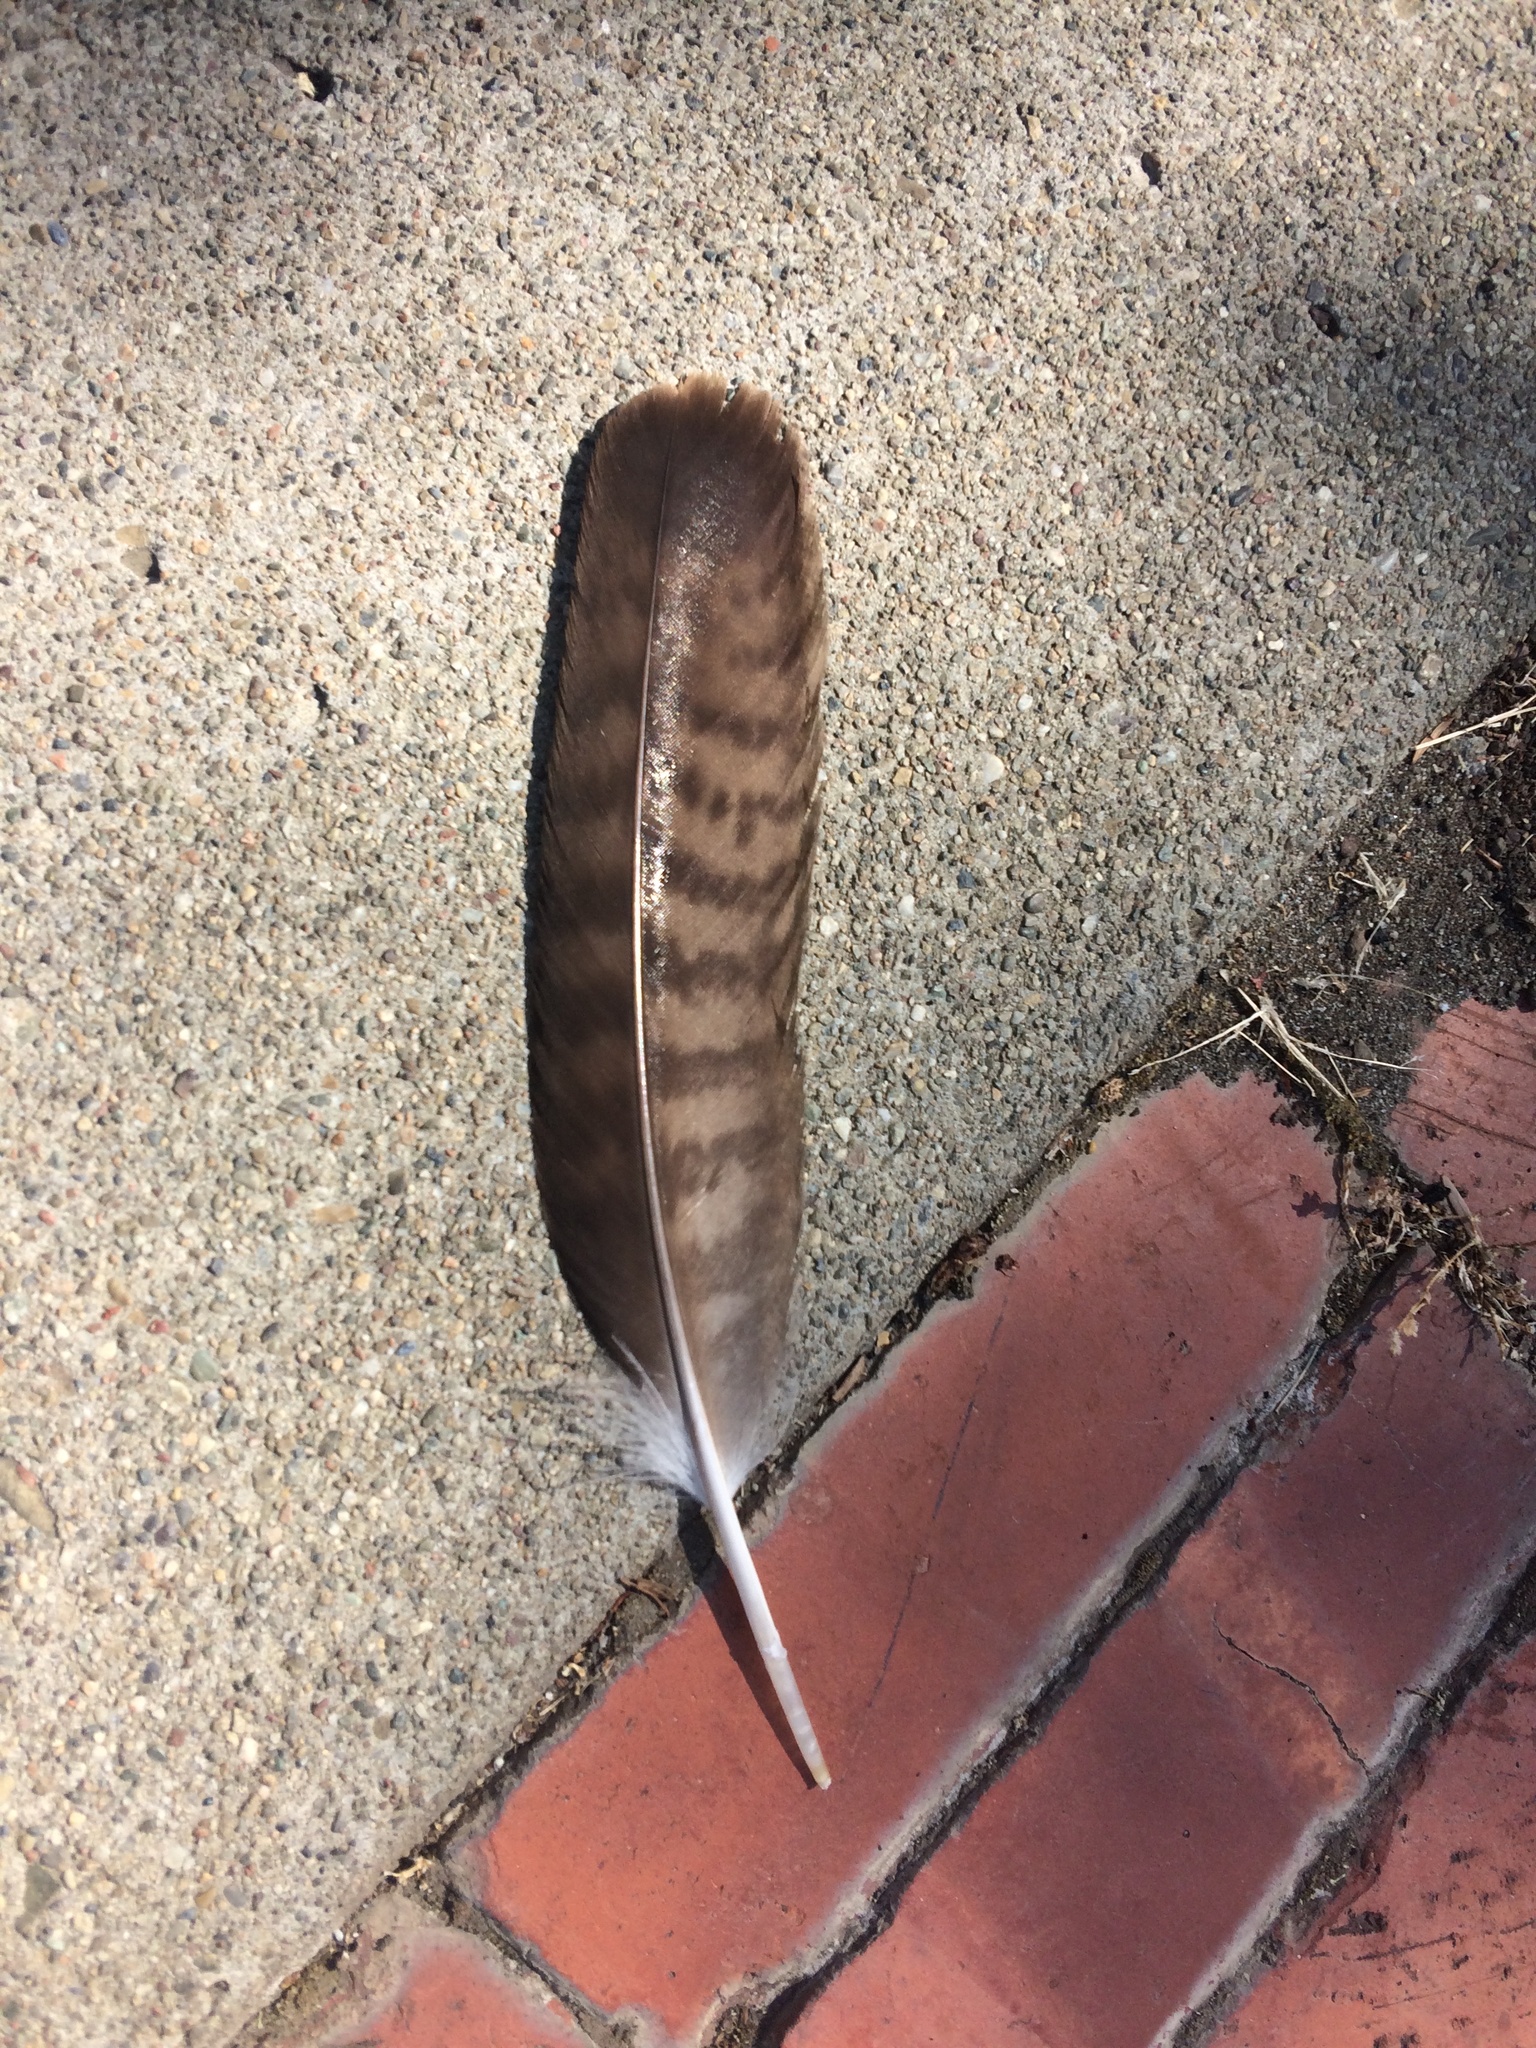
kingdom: Animalia
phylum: Chordata
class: Aves
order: Accipitriformes
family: Accipitridae
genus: Buteo
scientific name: Buteo jamaicensis
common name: Red-tailed hawk
